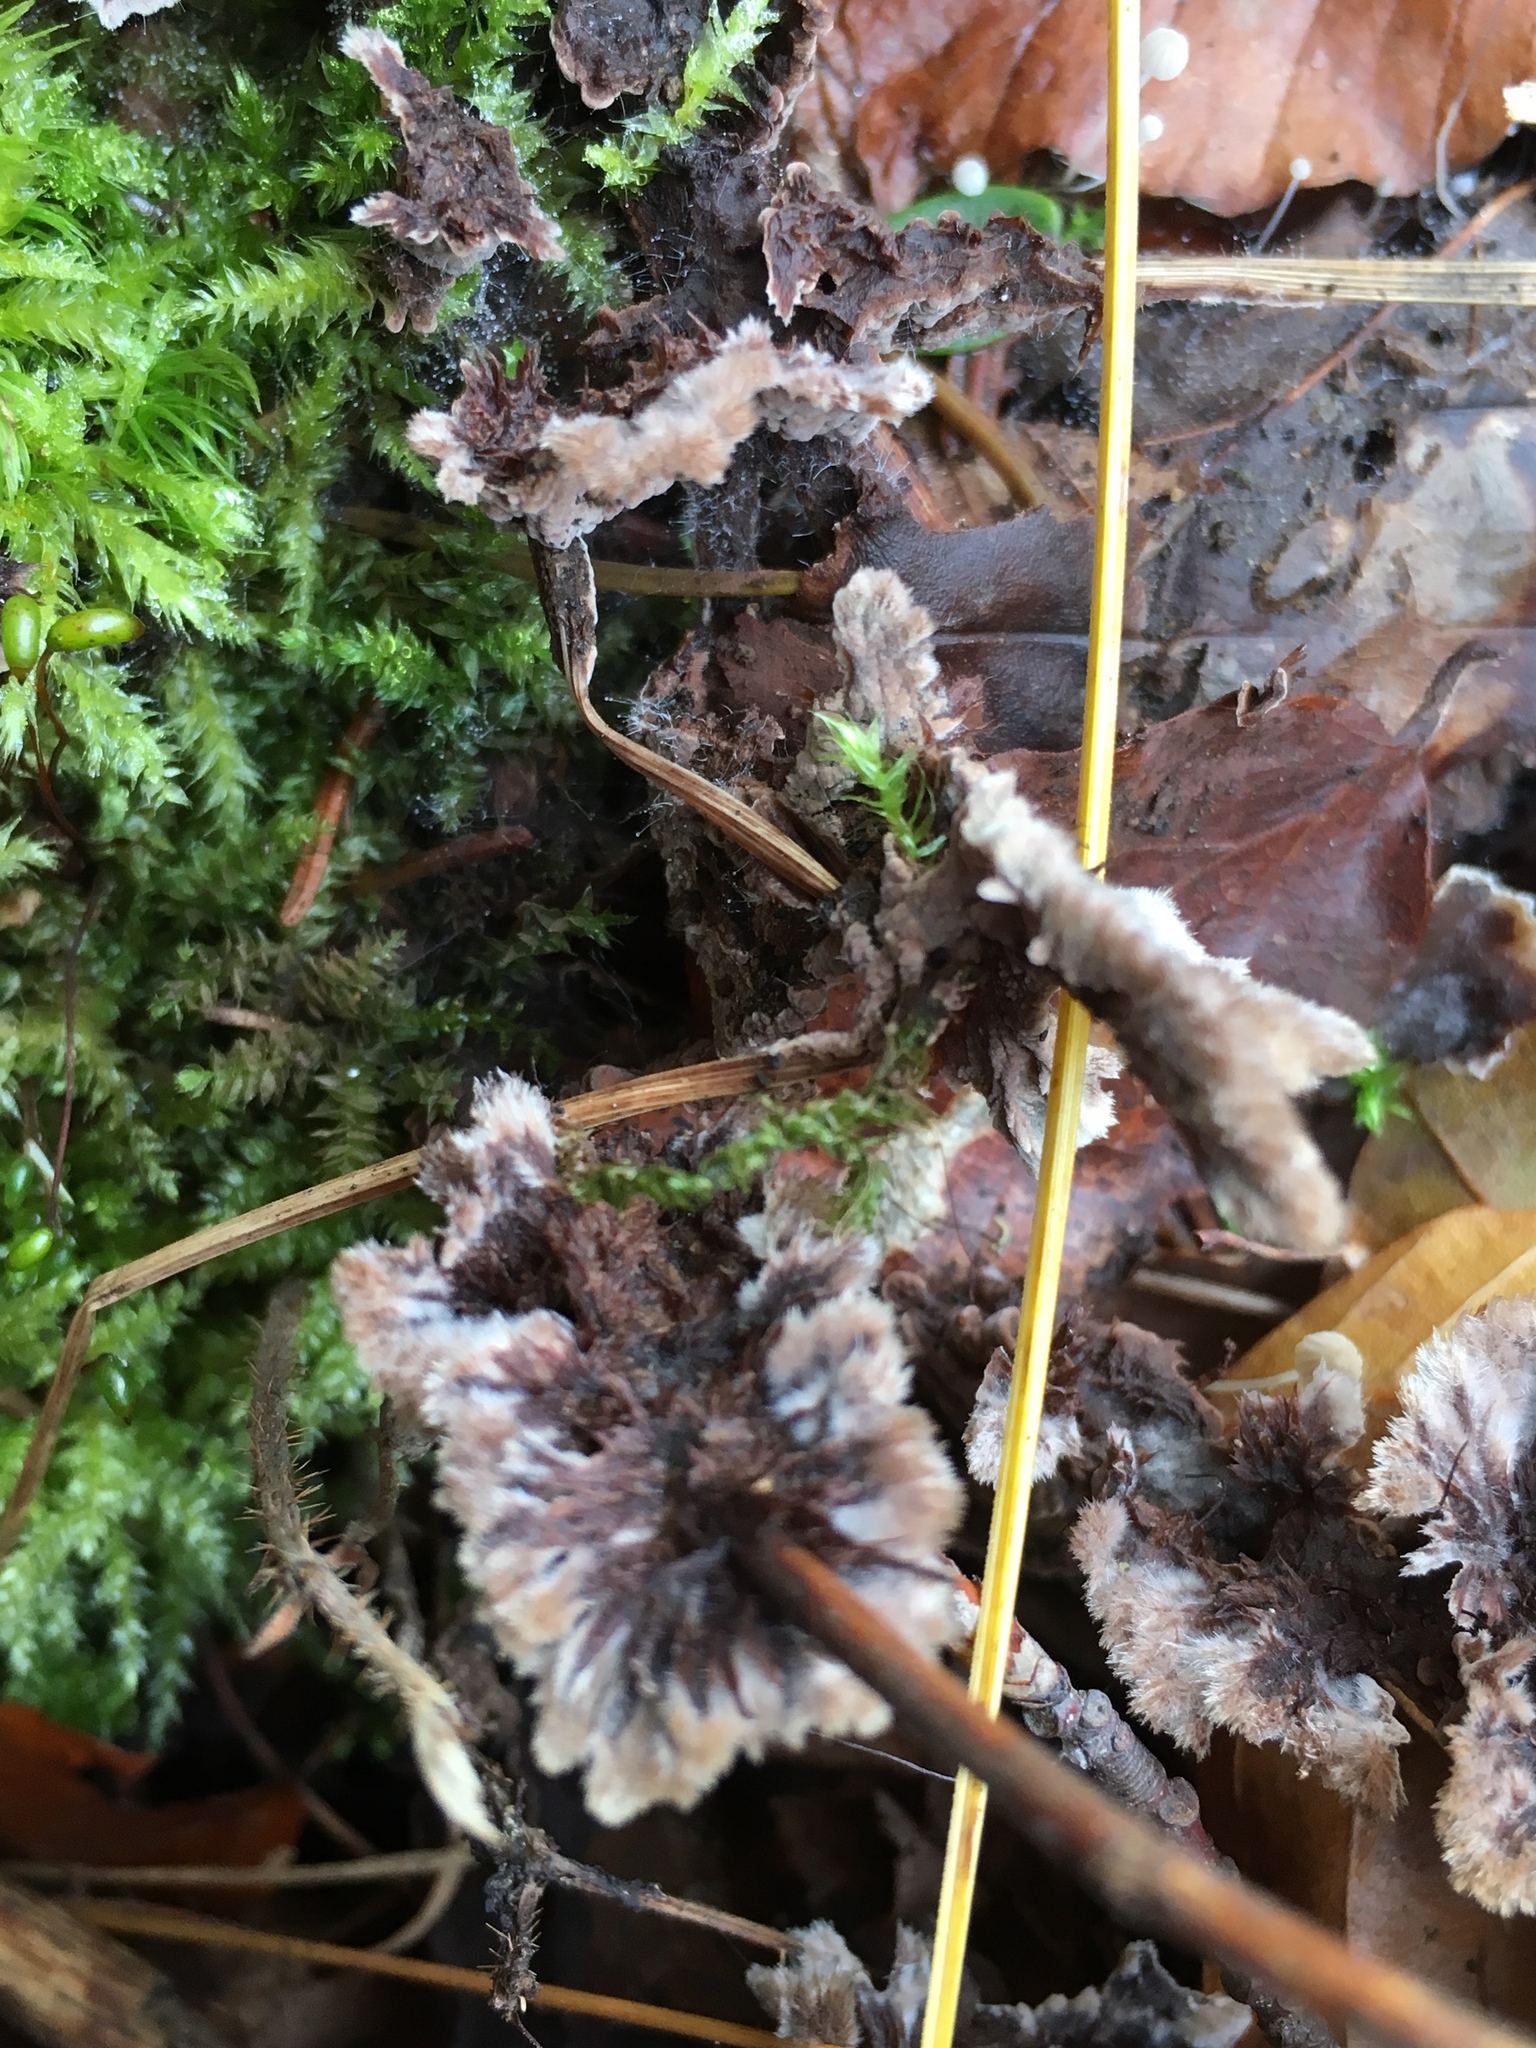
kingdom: Fungi
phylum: Basidiomycota
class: Agaricomycetes
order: Thelephorales
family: Thelephoraceae
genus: Thelephora
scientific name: Thelephora terrestris
